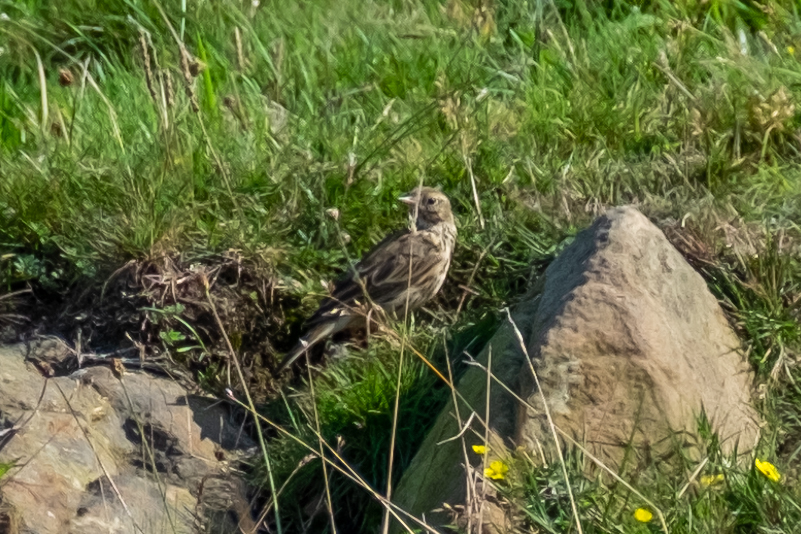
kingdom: Animalia
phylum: Chordata
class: Aves
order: Passeriformes
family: Motacillidae
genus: Anthus
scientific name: Anthus pratensis
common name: Meadow pipit
